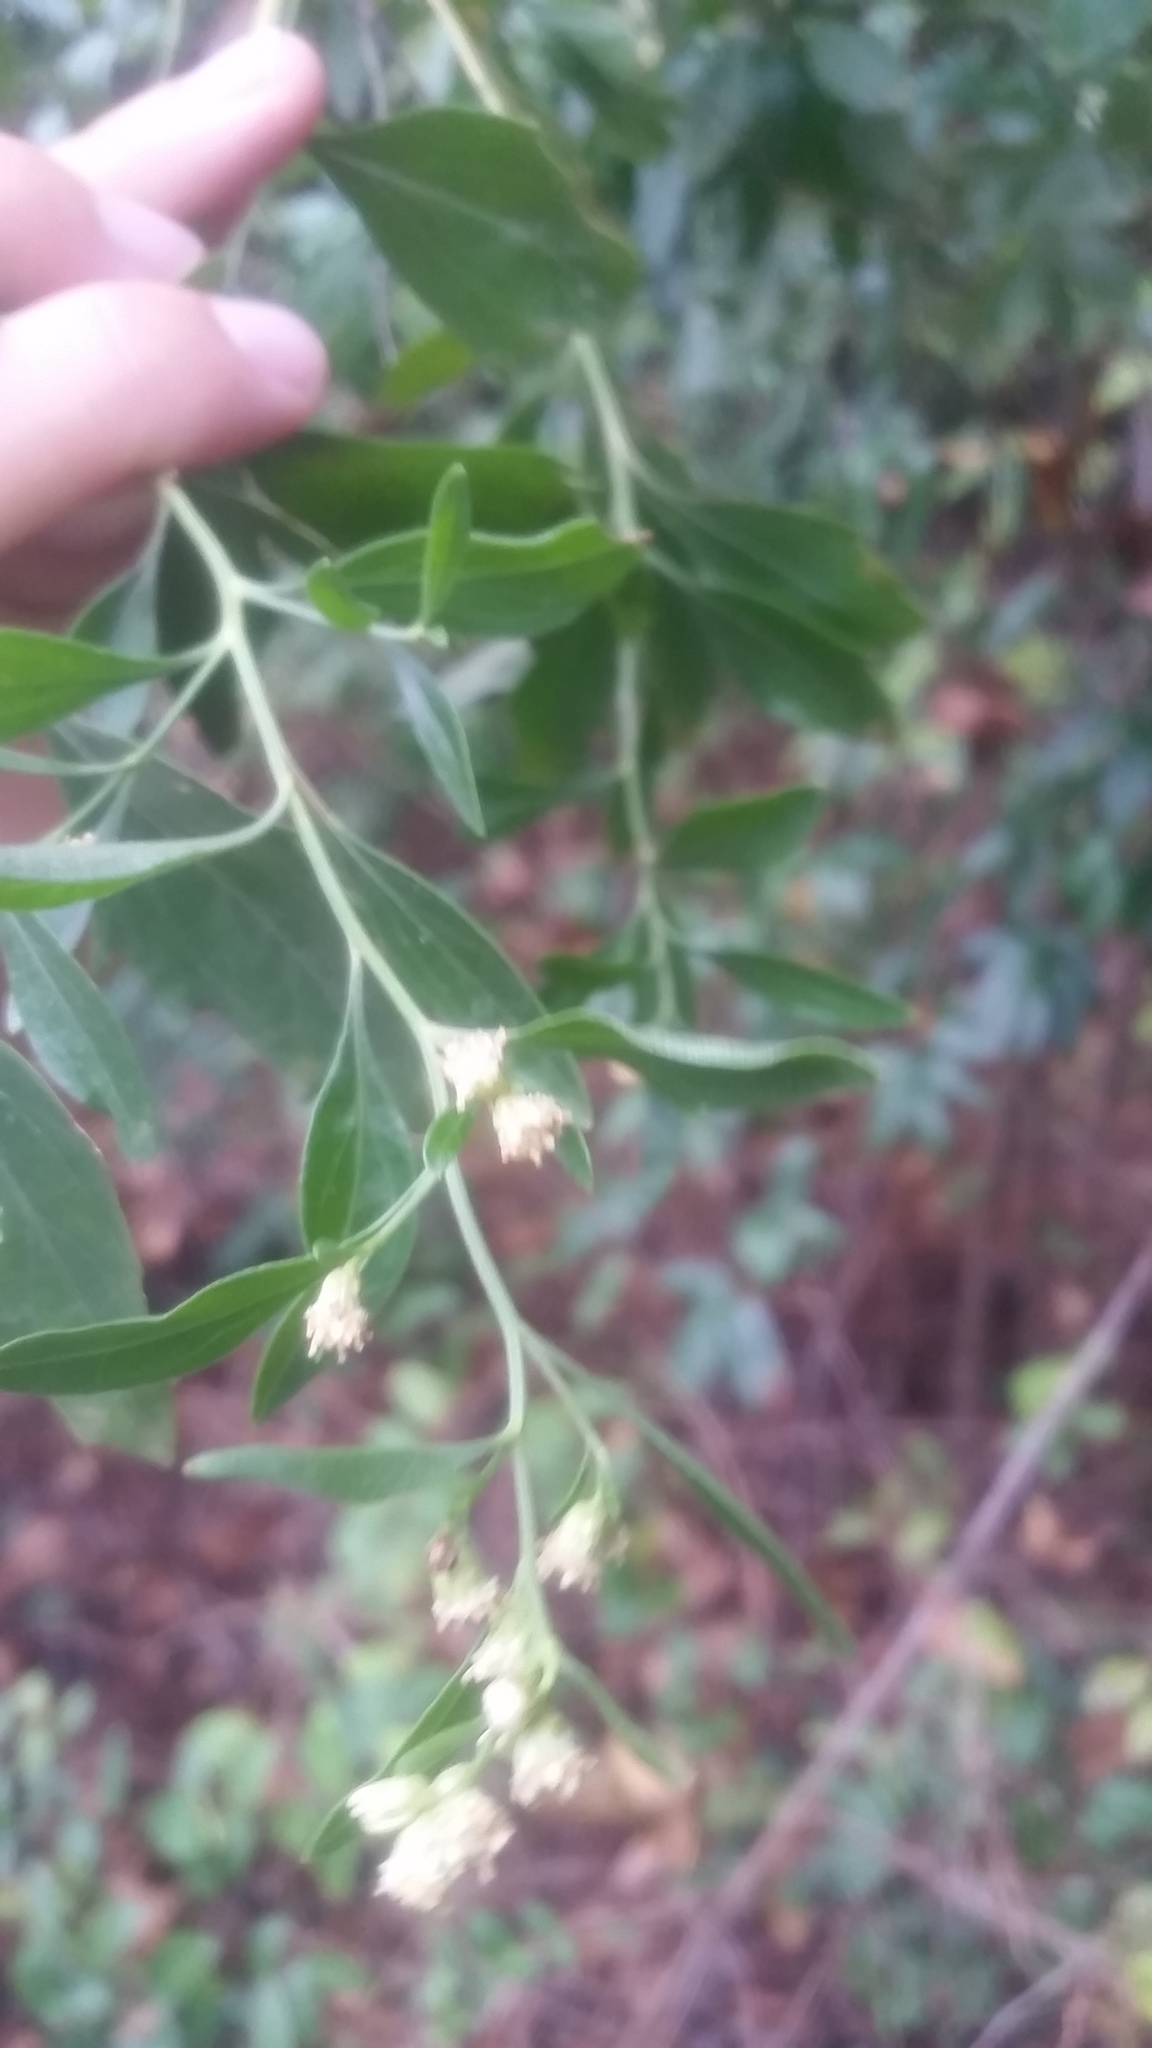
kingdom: Plantae
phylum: Tracheophyta
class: Magnoliopsida
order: Asterales
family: Asteraceae
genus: Baccharis
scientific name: Baccharis halimifolia
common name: Eastern baccharis
